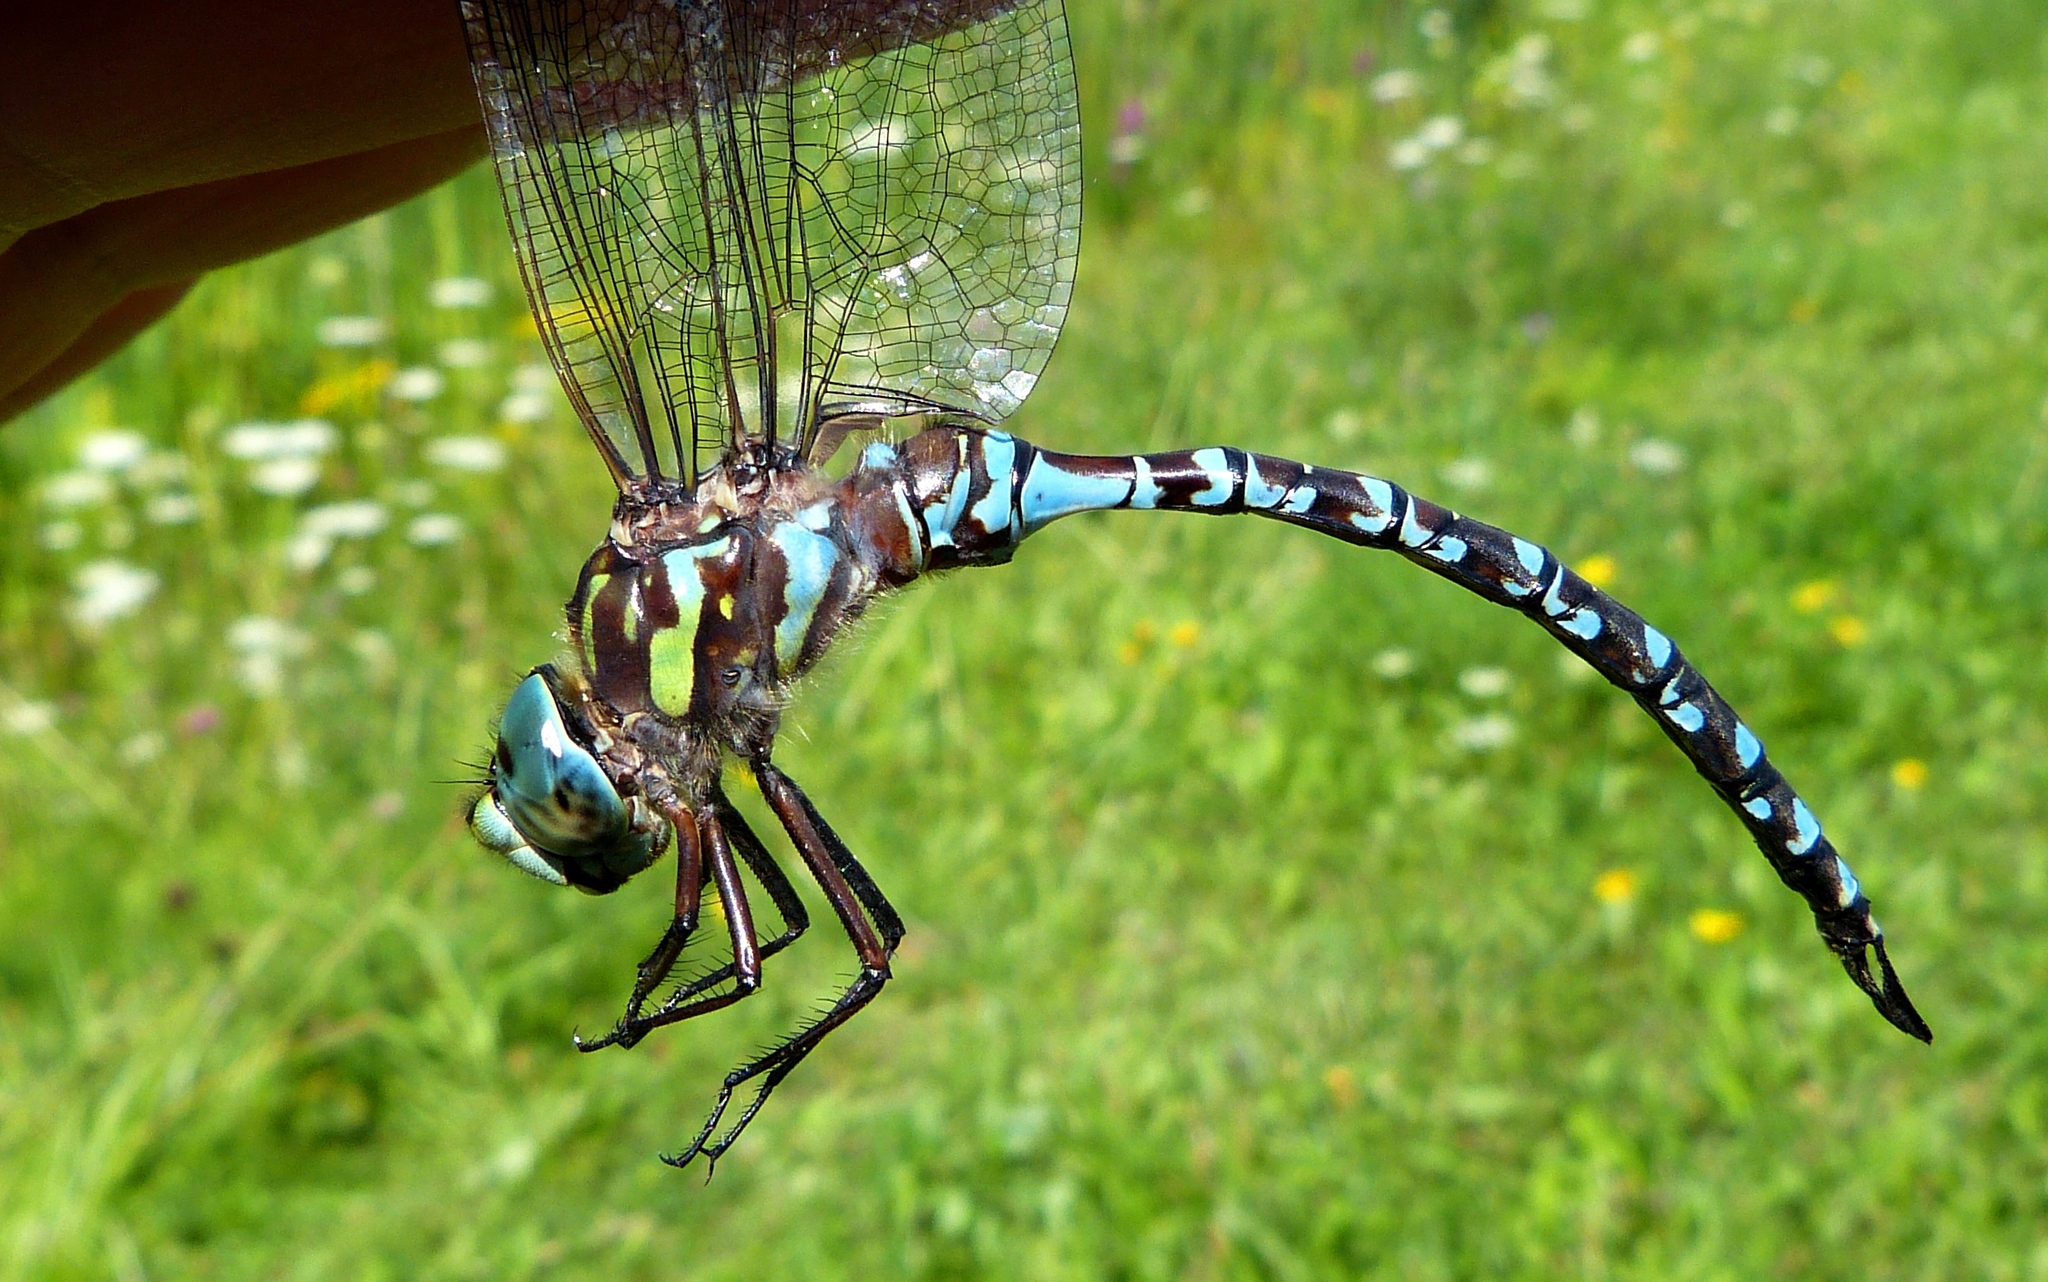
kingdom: Animalia
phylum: Arthropoda
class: Insecta
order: Odonata
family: Aeshnidae
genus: Aeshna
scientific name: Aeshna canadensis
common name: Canada darner
